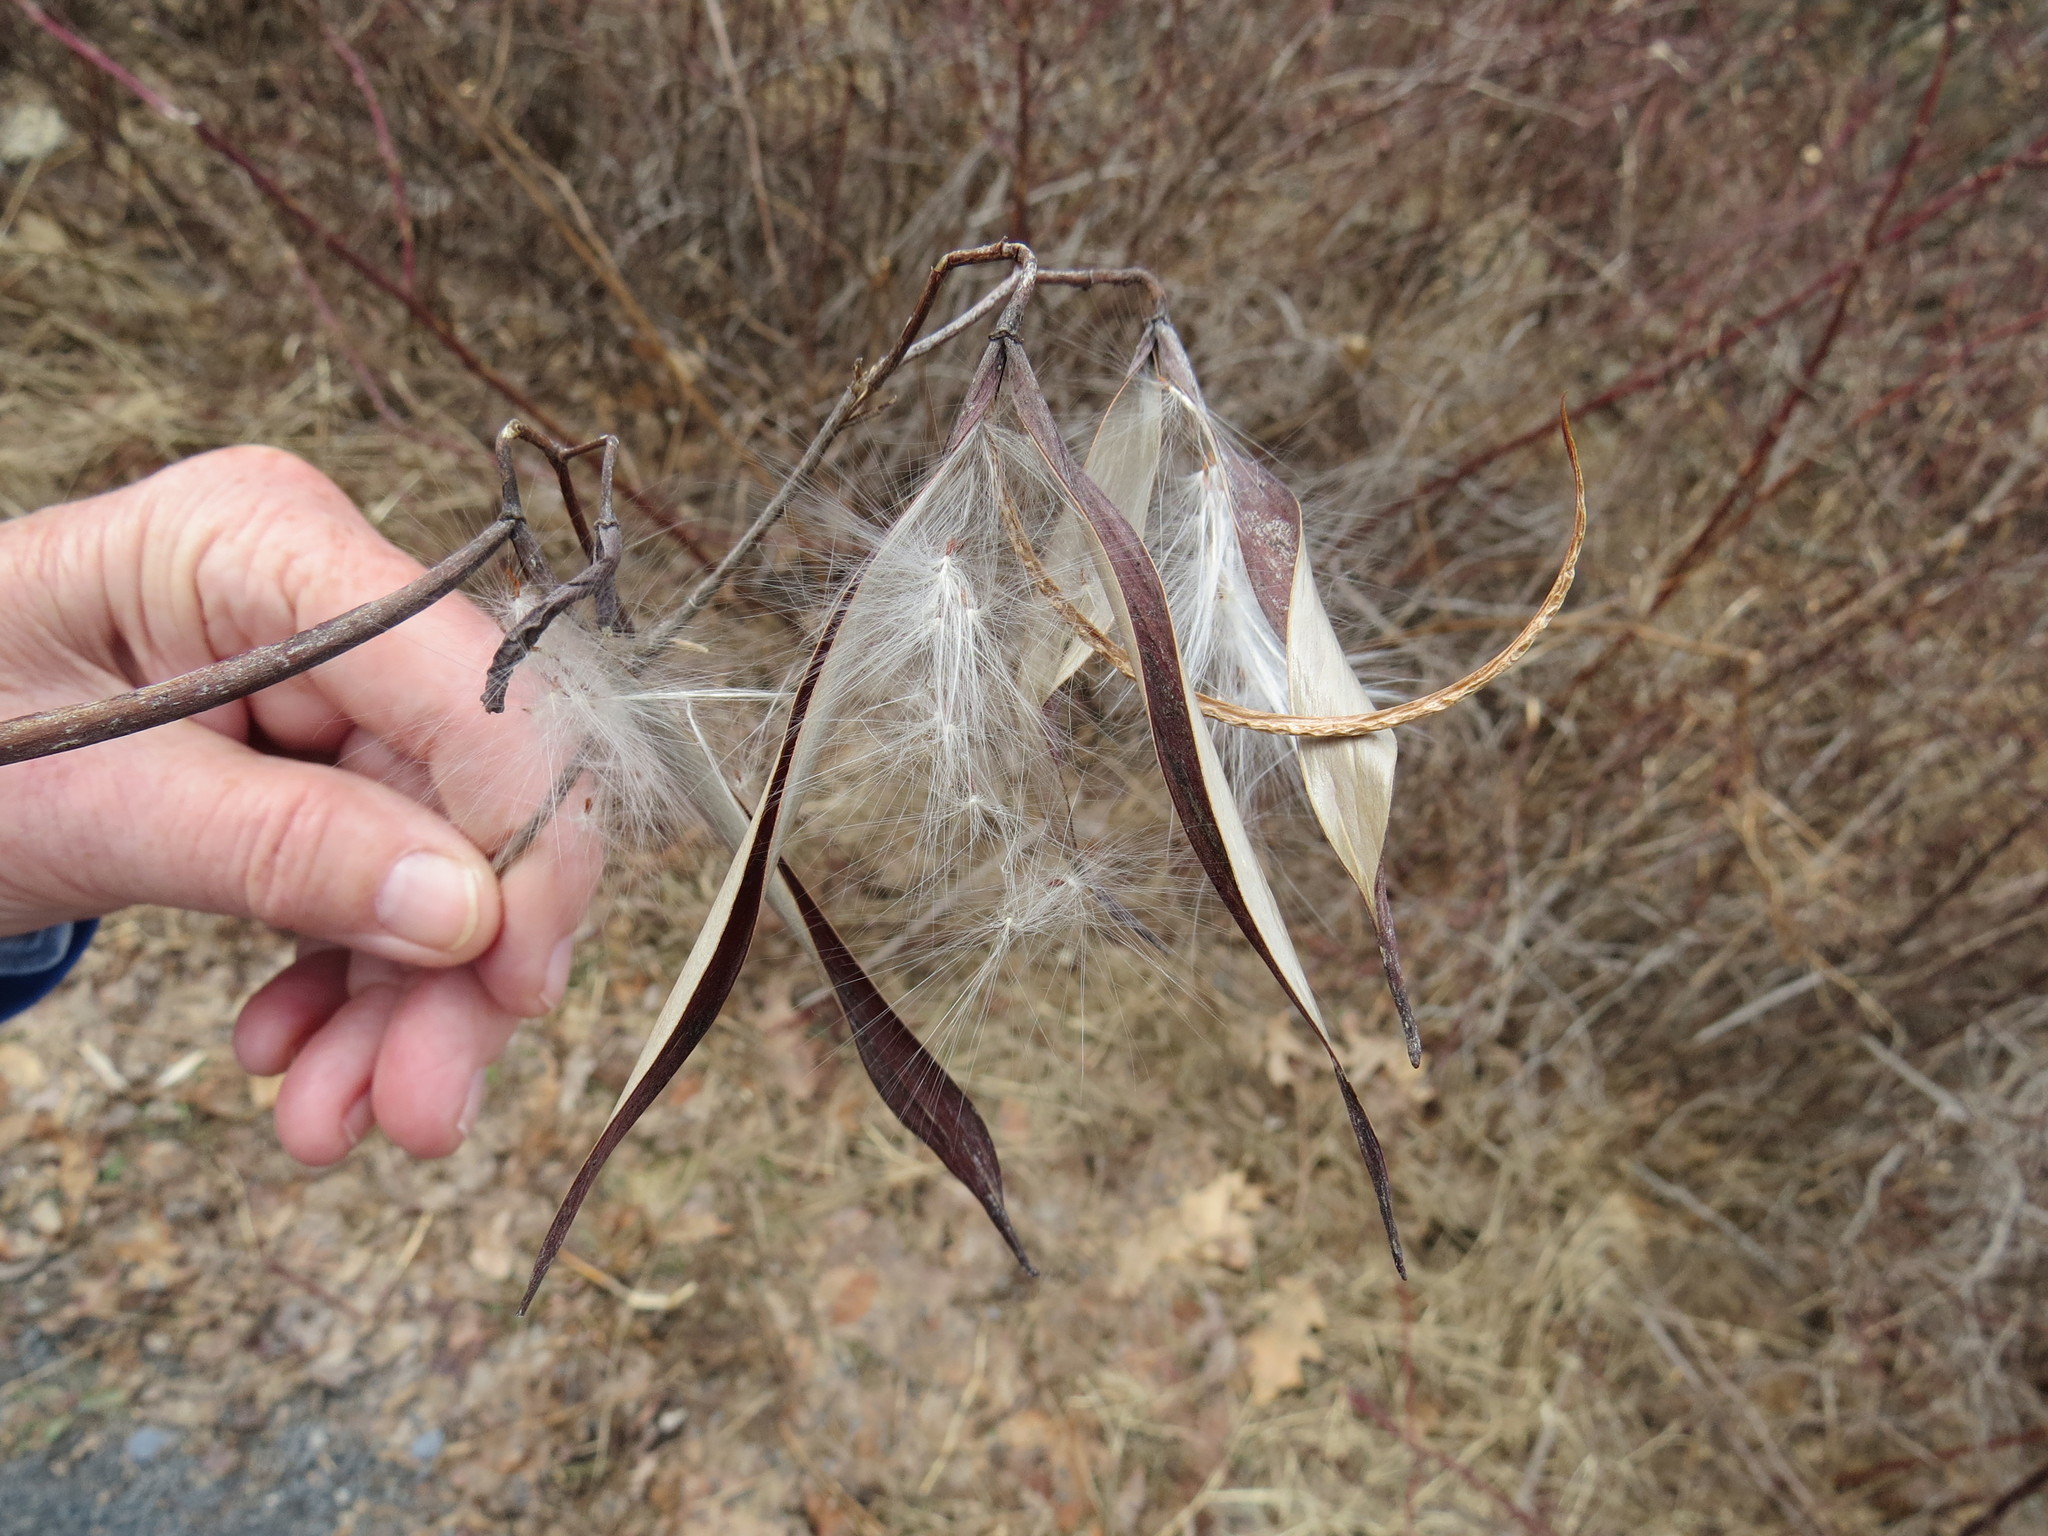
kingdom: Plantae
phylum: Tracheophyta
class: Magnoliopsida
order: Gentianales
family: Apocynaceae
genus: Apocynum
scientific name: Apocynum cannabinum
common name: Hemp dogbane
